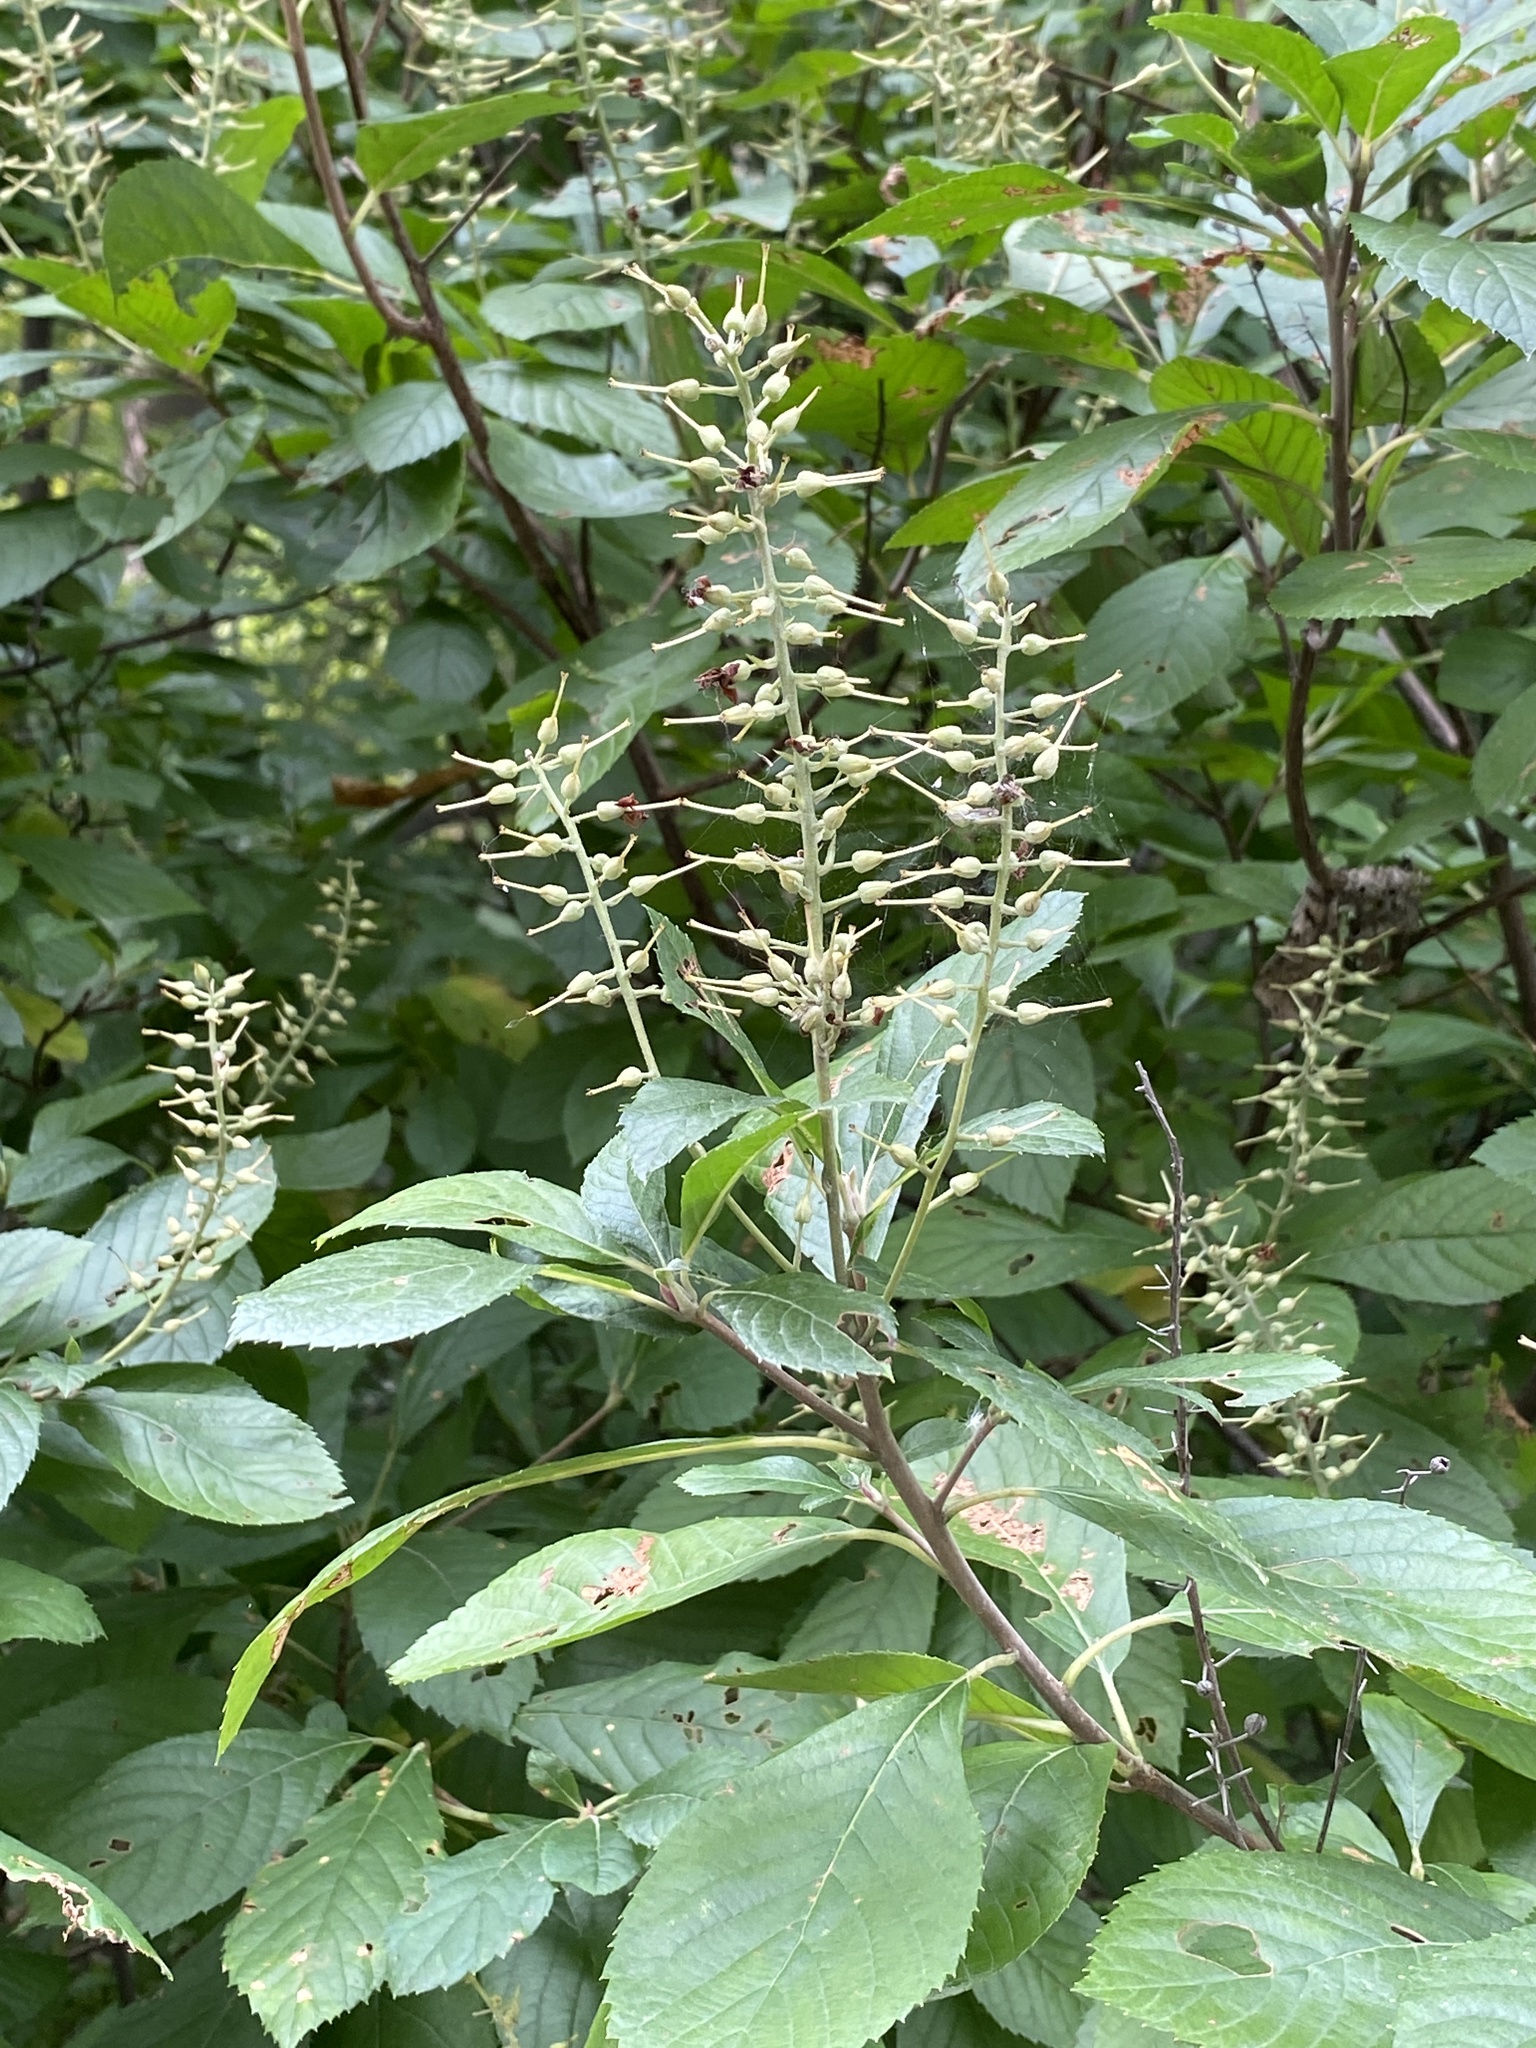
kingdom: Plantae
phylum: Tracheophyta
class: Magnoliopsida
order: Ericales
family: Clethraceae
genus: Clethra
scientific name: Clethra alnifolia
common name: Sweet pepperbush
